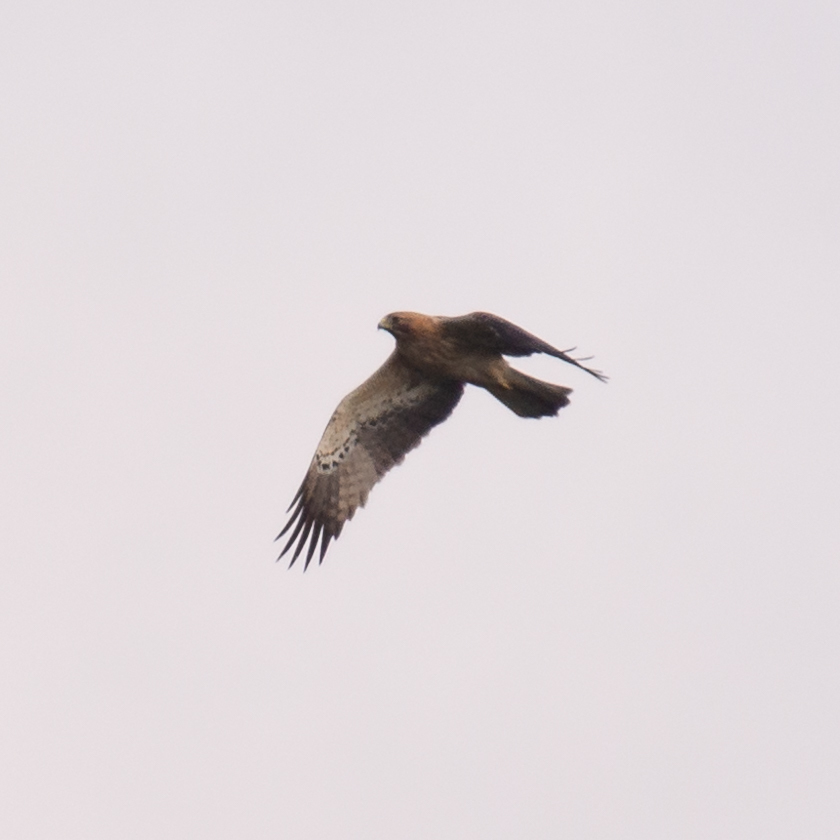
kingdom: Animalia
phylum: Chordata
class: Aves
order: Accipitriformes
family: Accipitridae
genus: Hieraaetus
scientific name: Hieraaetus pennatus
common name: Booted eagle
